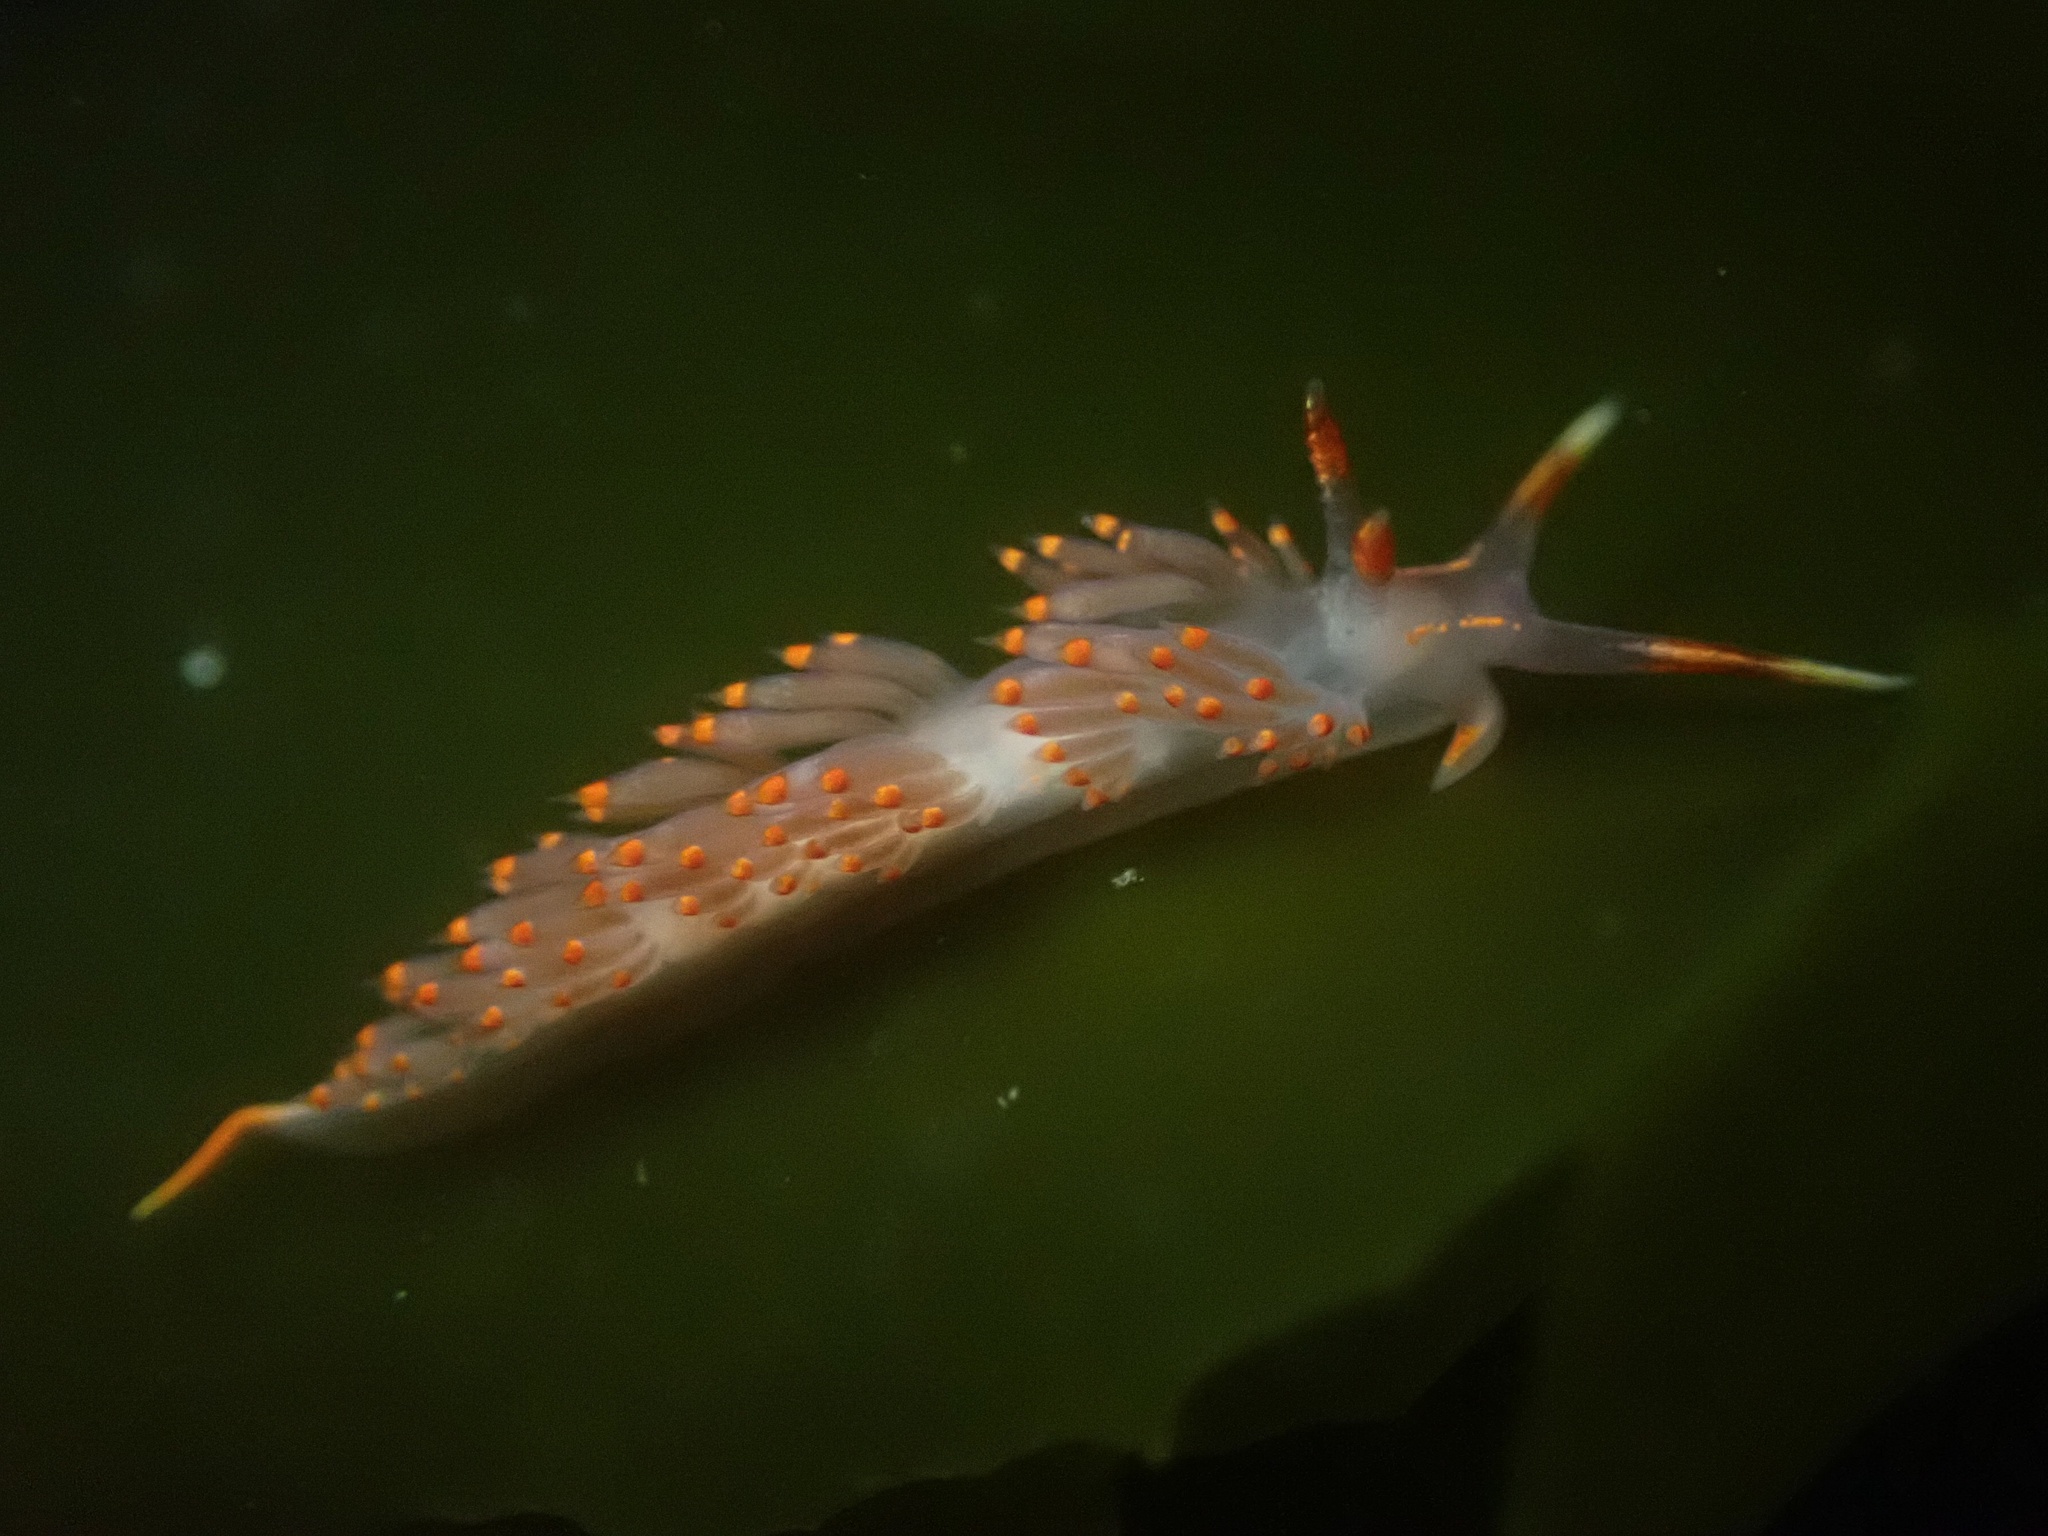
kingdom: Animalia
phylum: Mollusca
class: Gastropoda
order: Nudibranchia
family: Facelinidae
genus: Austraeolis
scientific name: Austraeolis stearnsi
